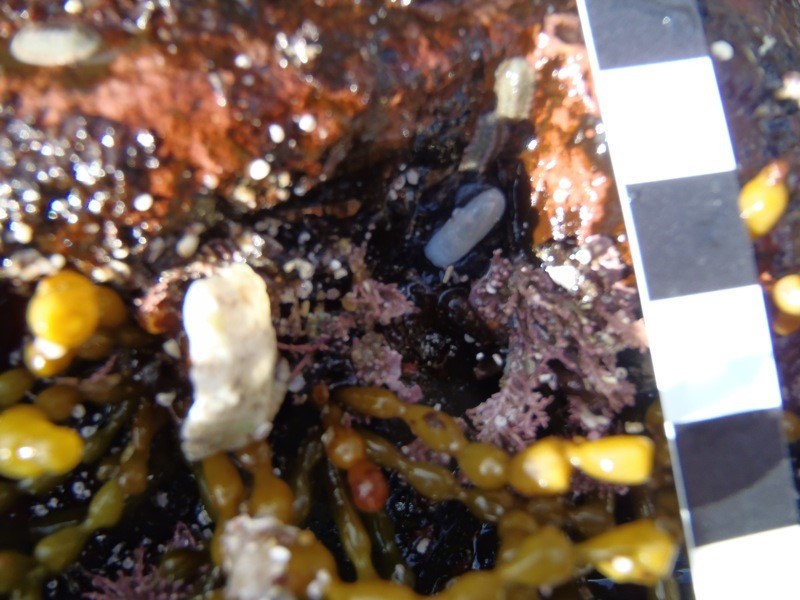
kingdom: Animalia
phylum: Mollusca
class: Gastropoda
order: Lepetellida
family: Fissurellidae
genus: Scutus
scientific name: Scutus antipodes
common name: Duckbill shell
